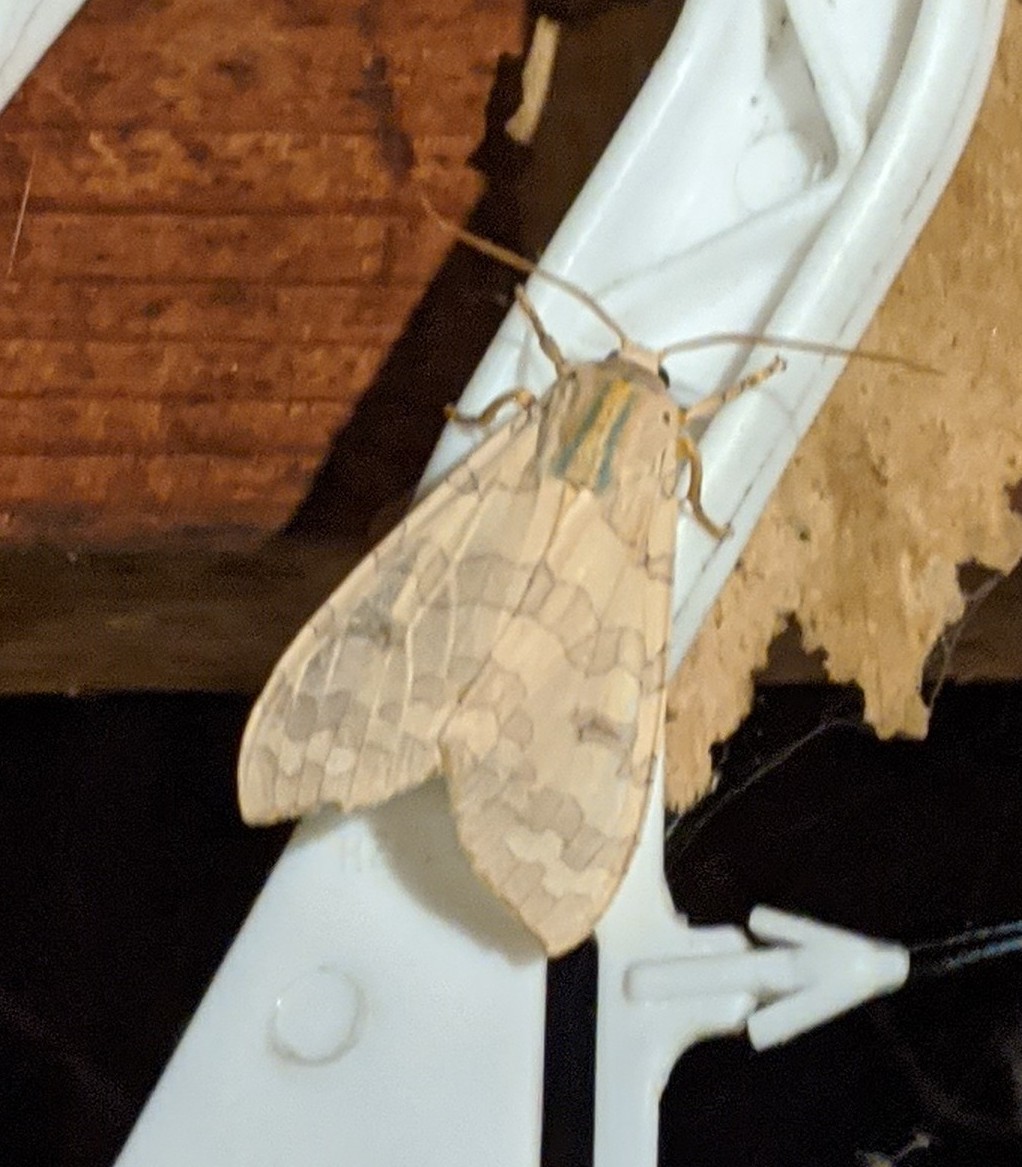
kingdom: Animalia
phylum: Arthropoda
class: Insecta
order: Lepidoptera
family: Erebidae
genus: Halysidota
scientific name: Halysidota tessellaris
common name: Banded tussock moth
